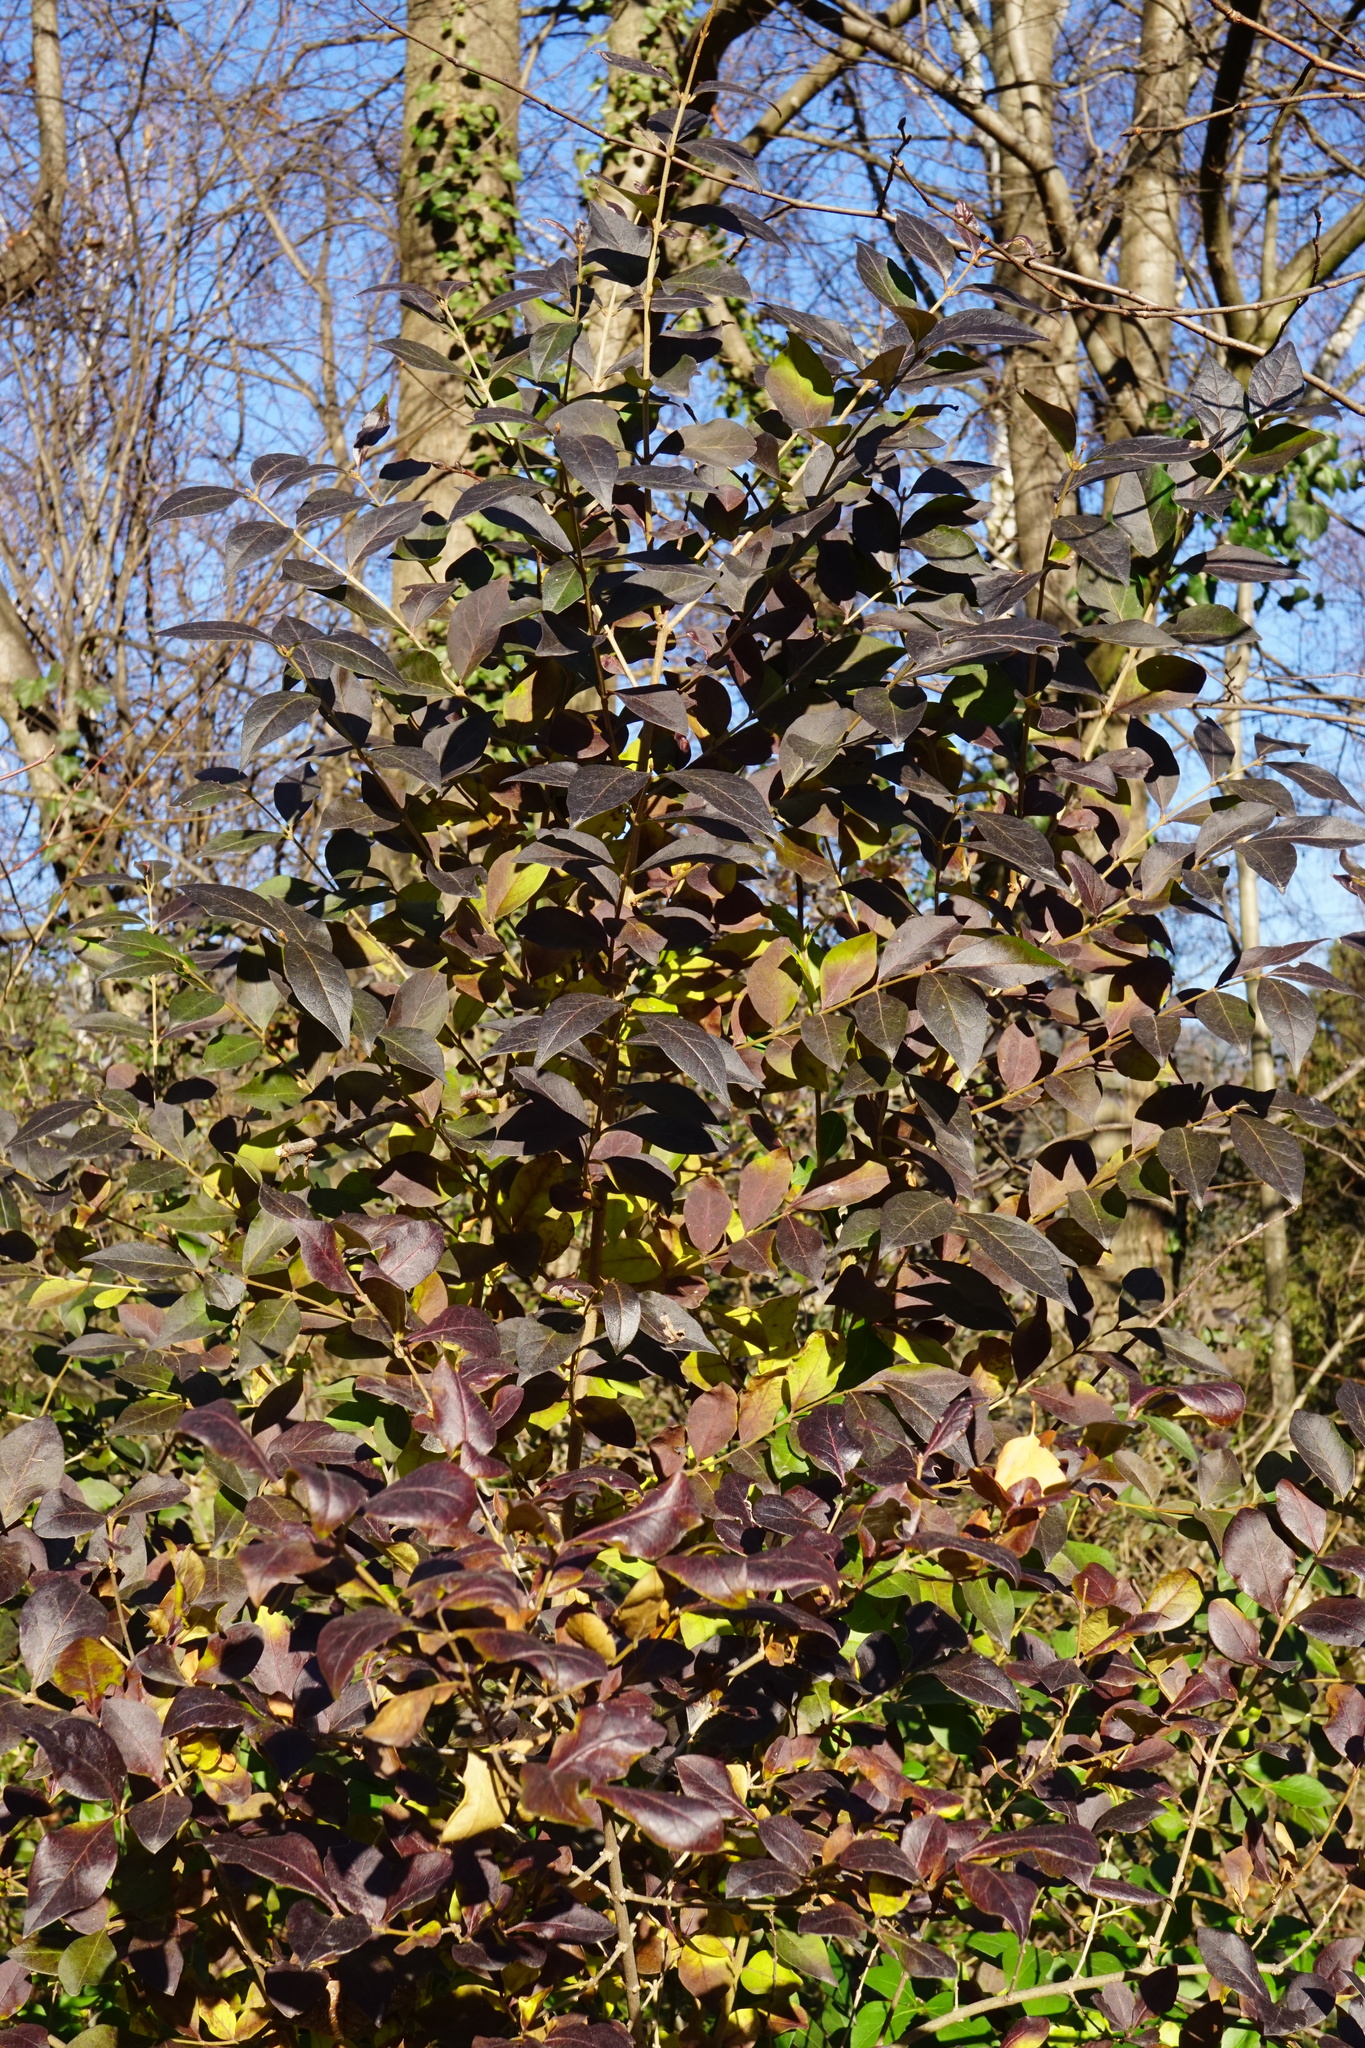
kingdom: Plantae
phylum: Tracheophyta
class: Magnoliopsida
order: Lamiales
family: Oleaceae
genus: Ligustrum
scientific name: Ligustrum ovalifolium
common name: California privet
